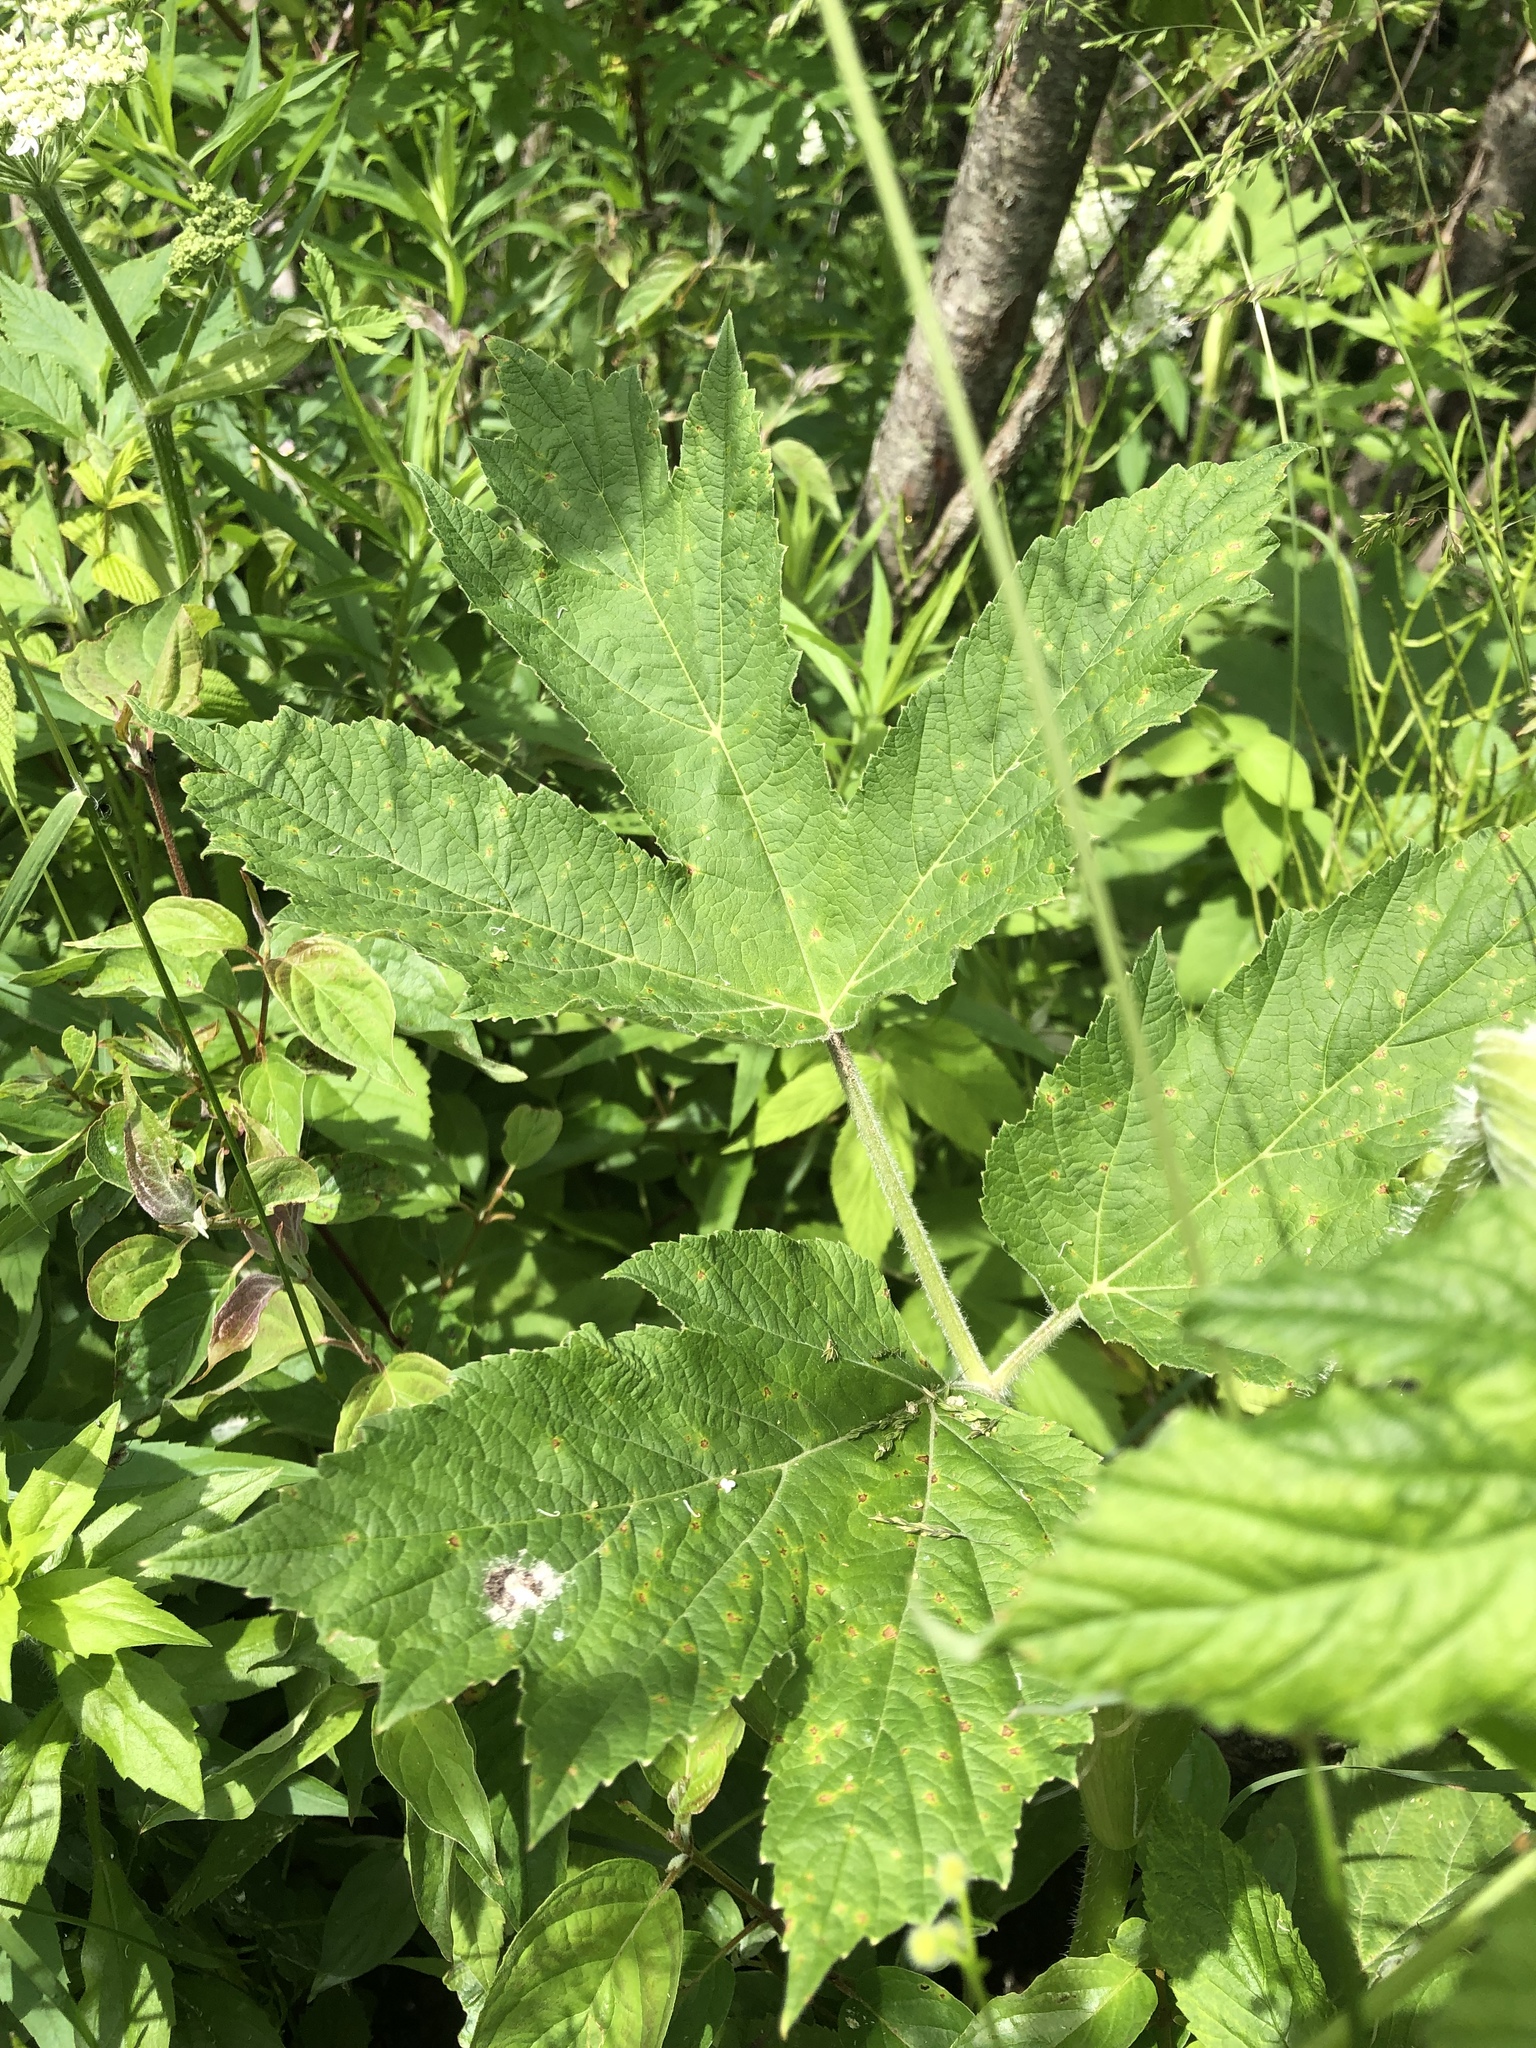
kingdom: Plantae
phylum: Tracheophyta
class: Magnoliopsida
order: Apiales
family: Apiaceae
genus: Heracleum
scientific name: Heracleum maximum
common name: American cow parsnip
